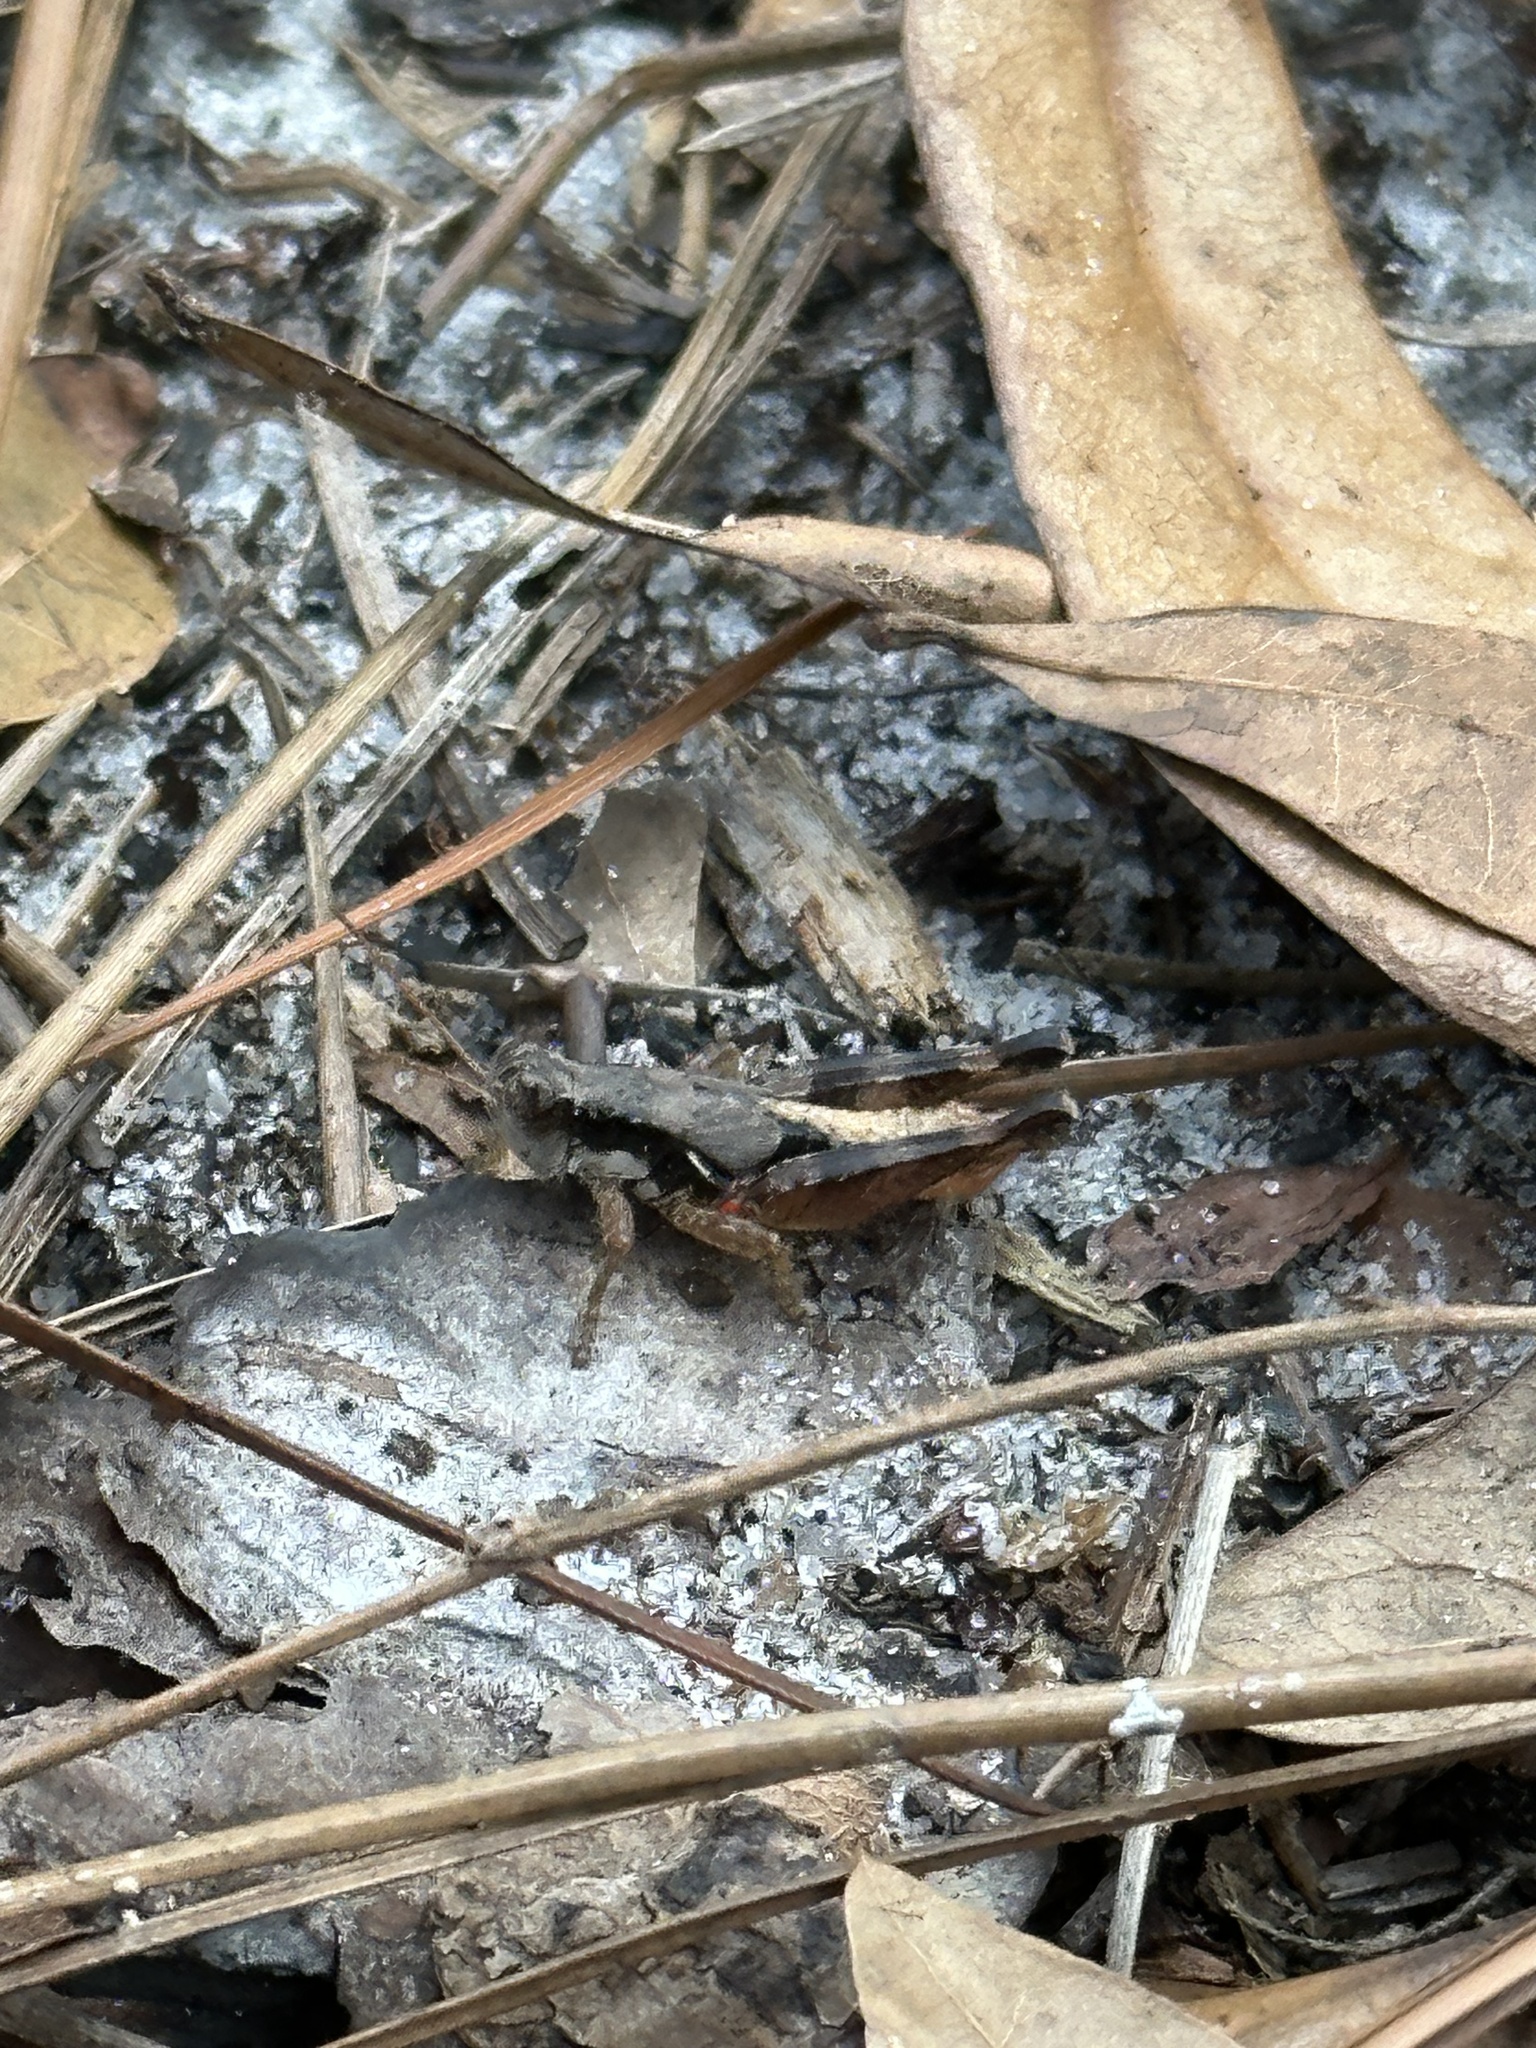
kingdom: Animalia
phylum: Arthropoda
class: Insecta
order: Orthoptera
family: Acrididae
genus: Melanoplus
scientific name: Melanoplus rotundipennis
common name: Round-winged locust
